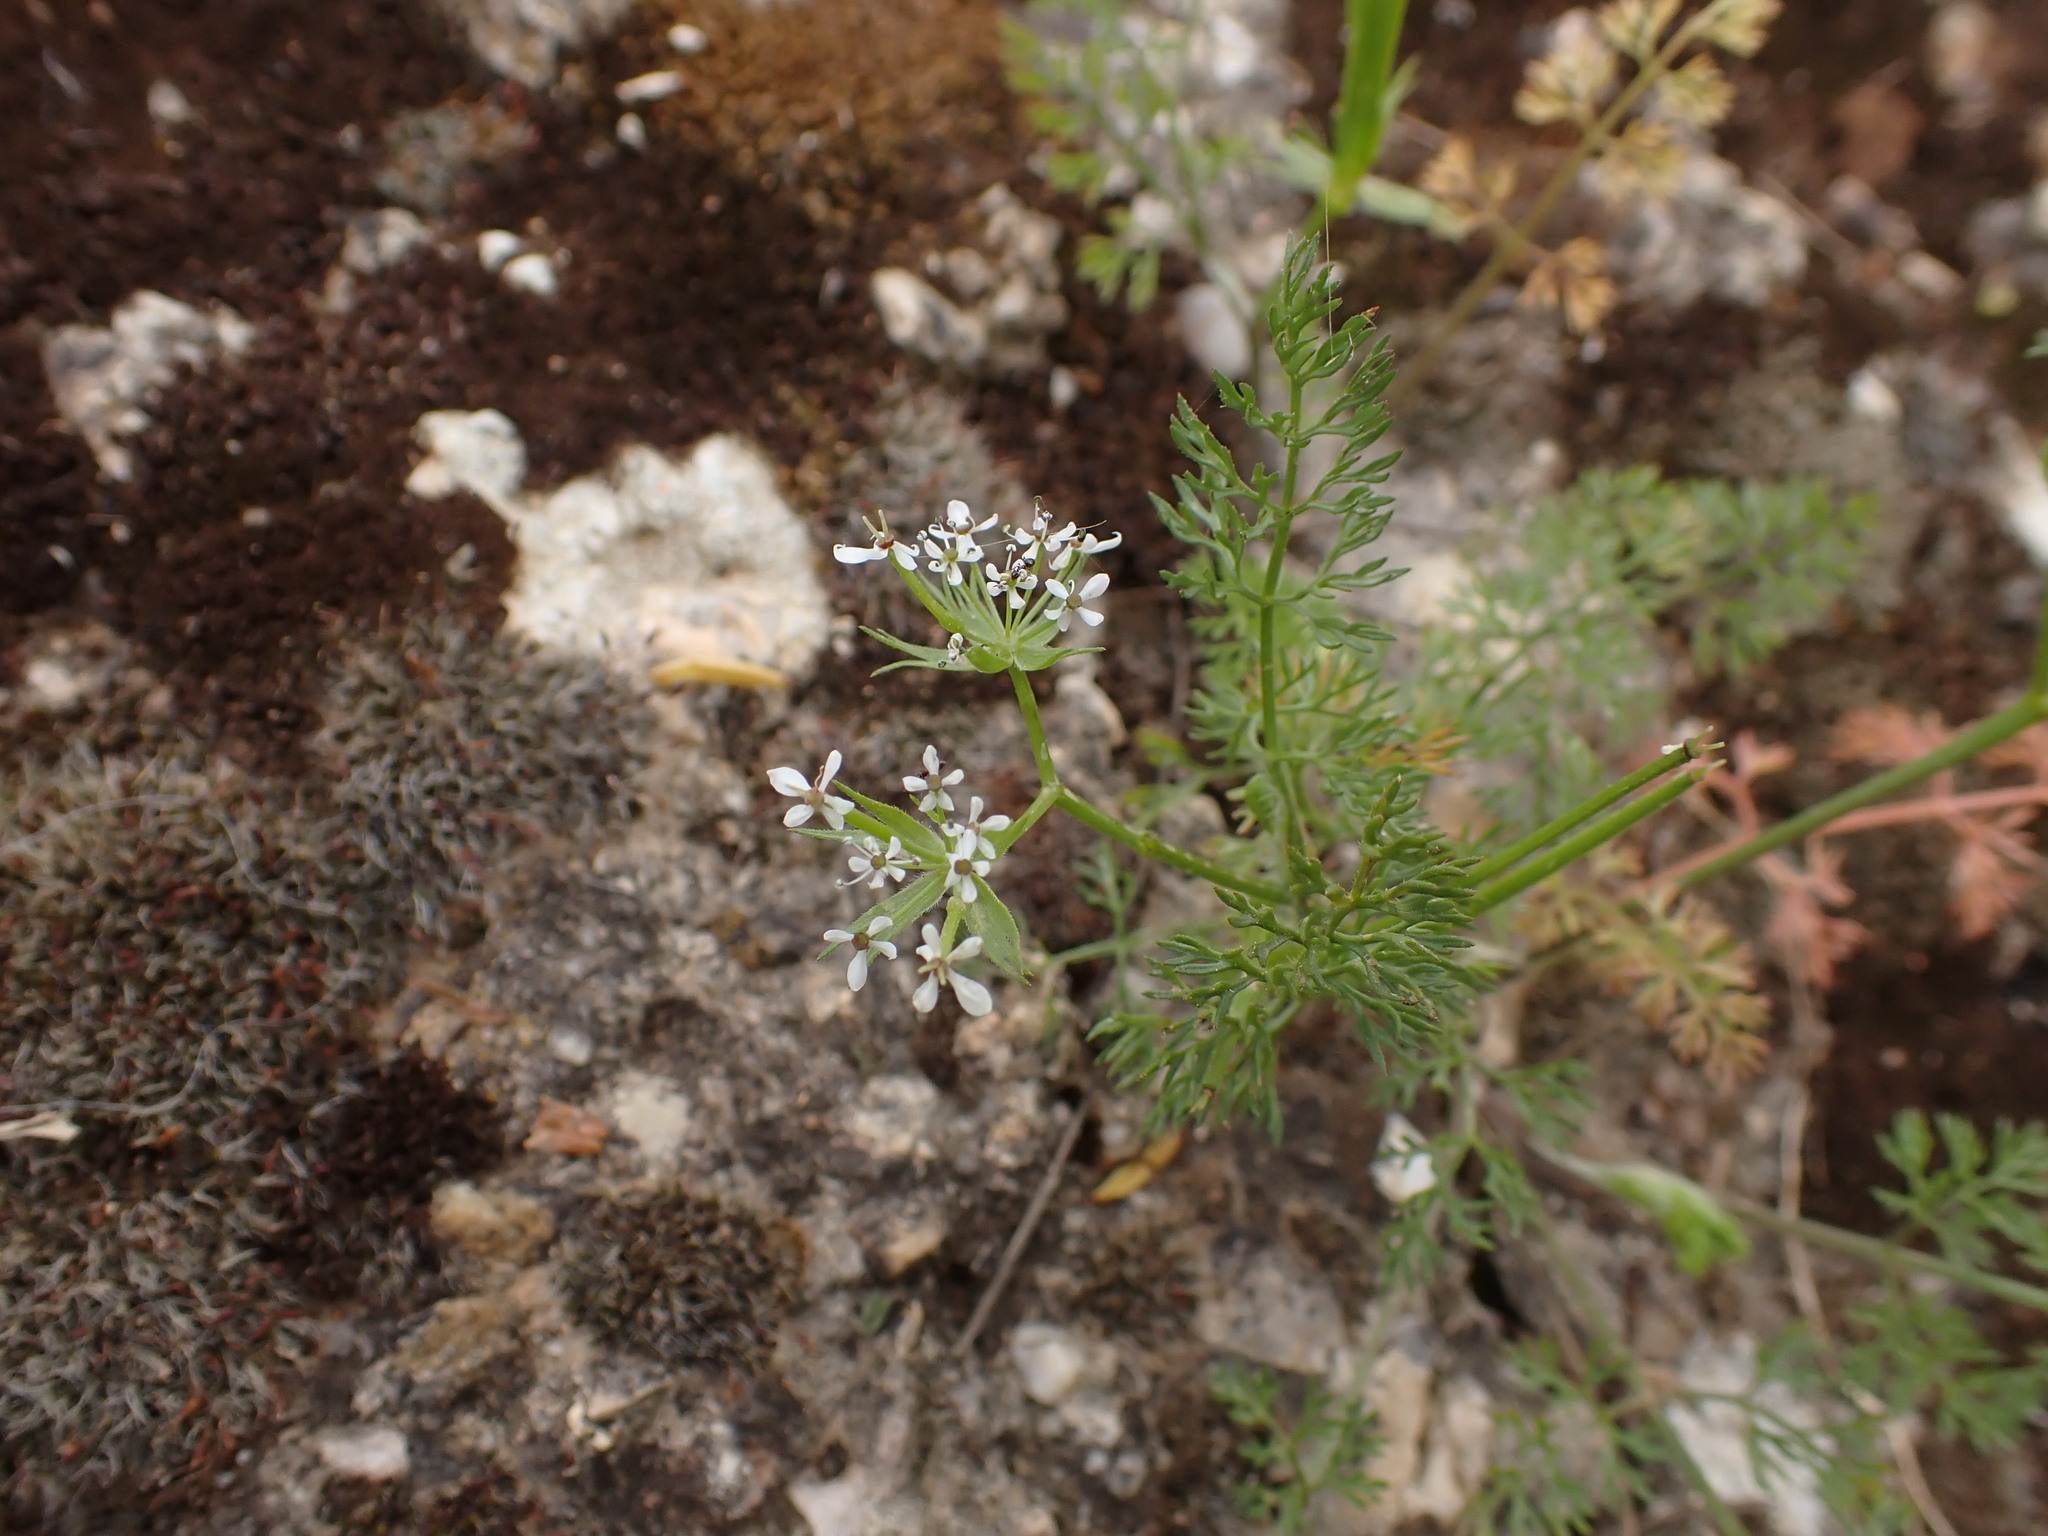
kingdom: Plantae
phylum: Tracheophyta
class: Magnoliopsida
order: Apiales
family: Apiaceae
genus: Scandix
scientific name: Scandix pecten-veneris
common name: Shepherd's-needle
